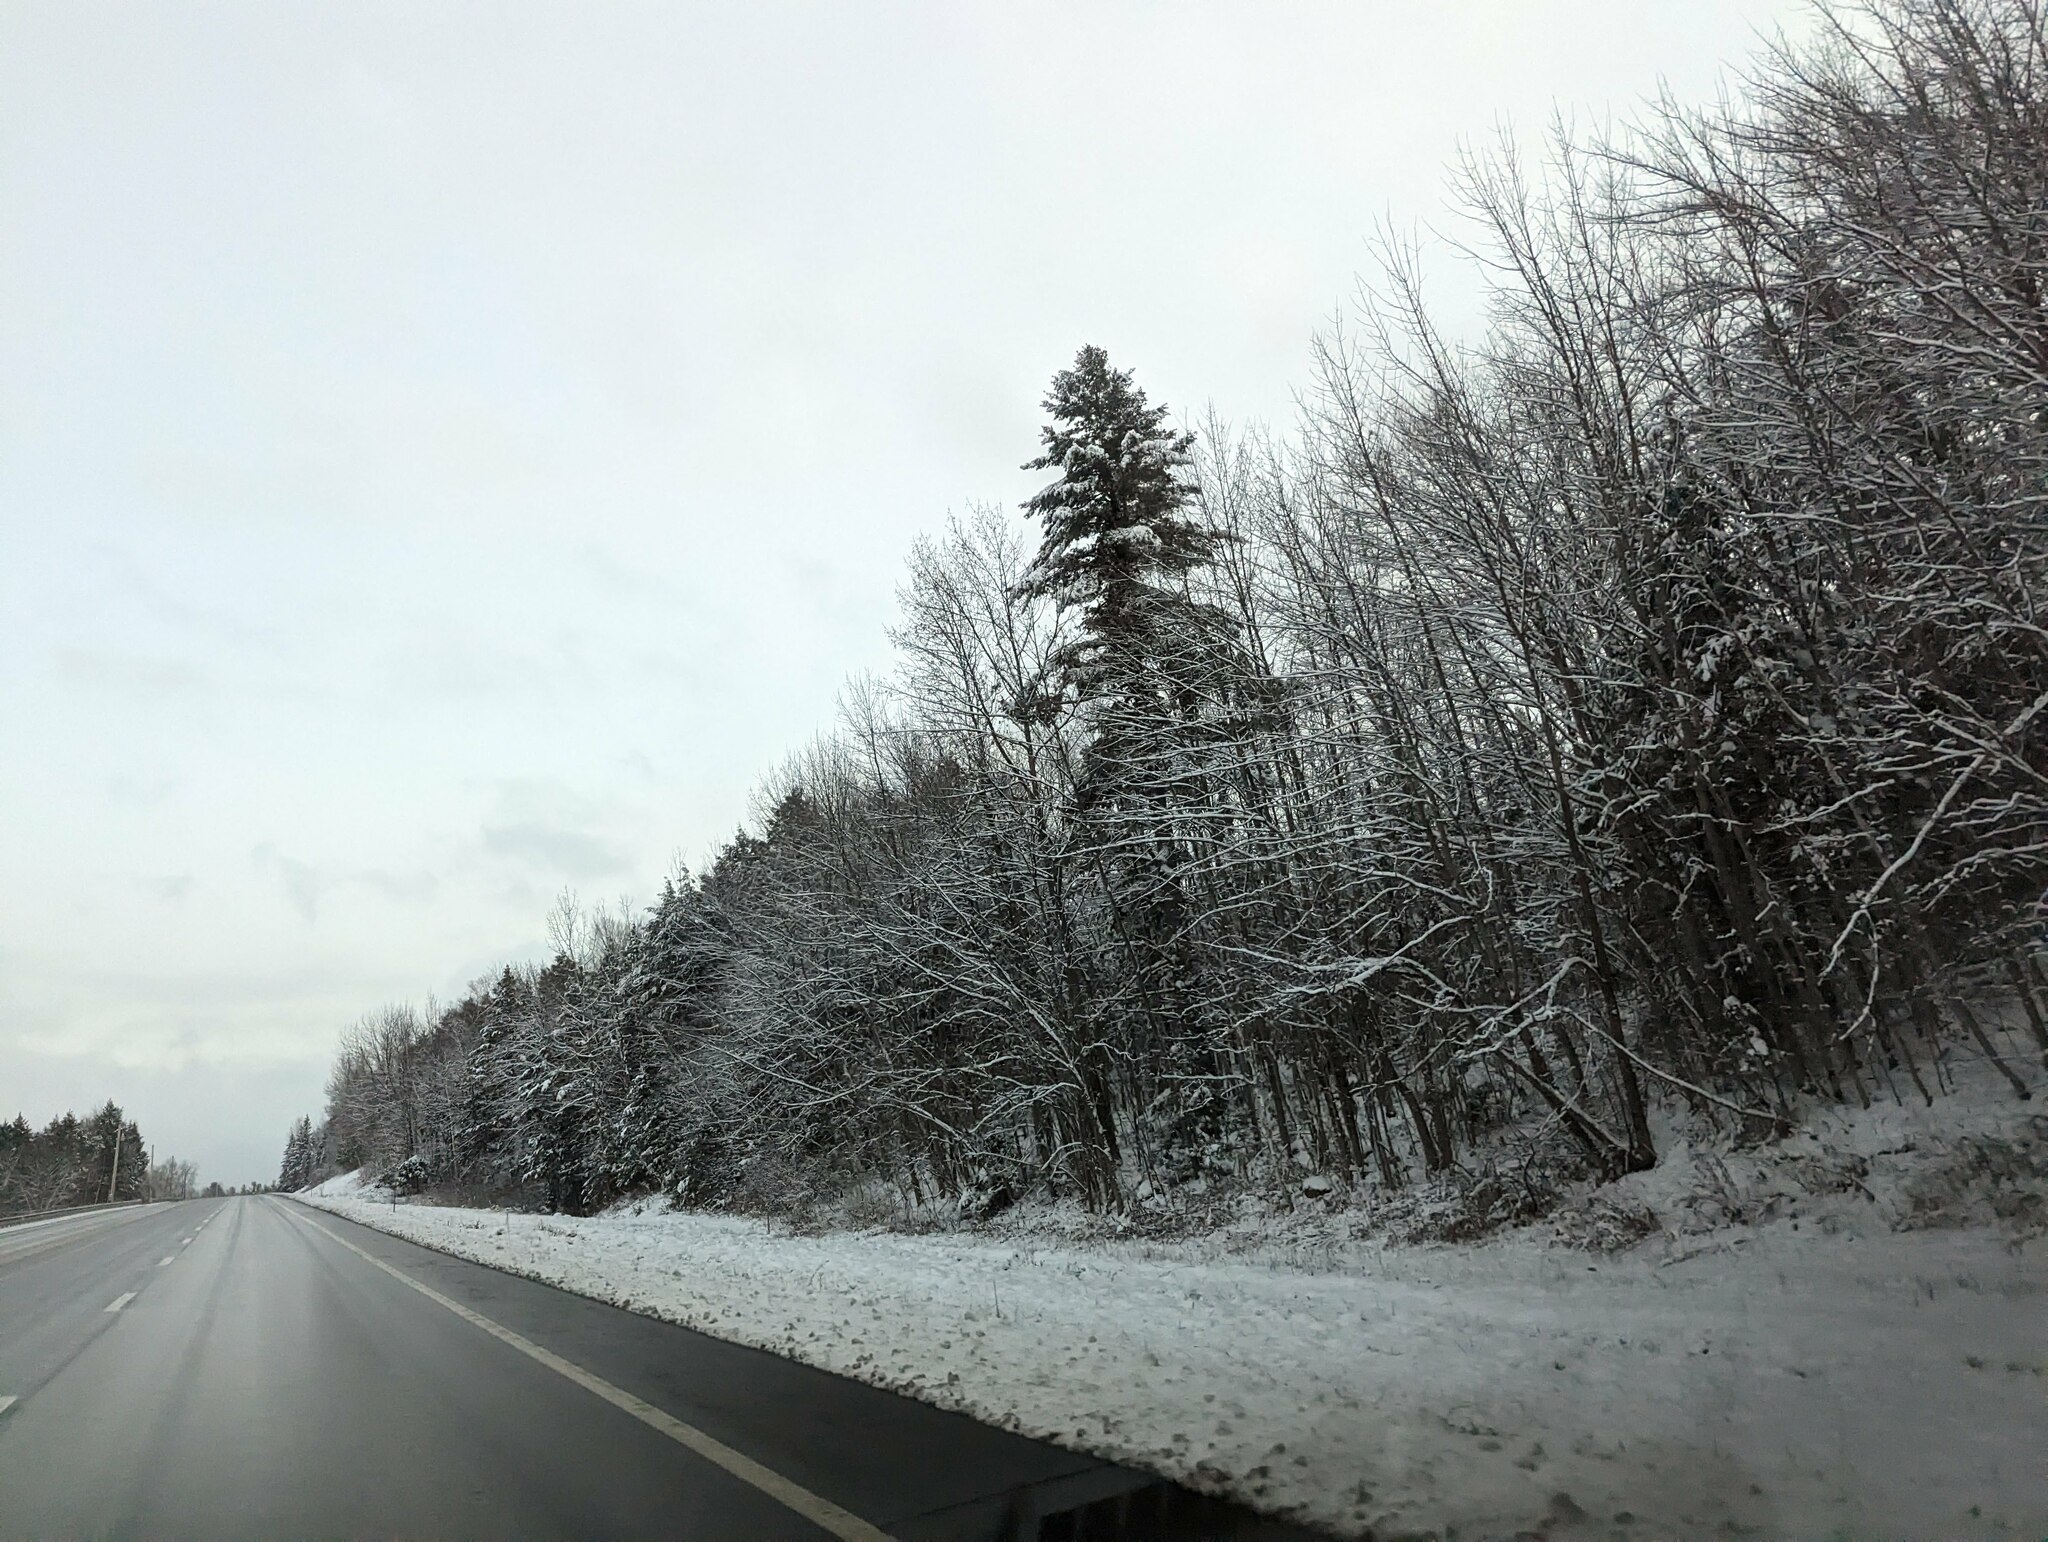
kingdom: Plantae
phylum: Tracheophyta
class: Pinopsida
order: Pinales
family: Pinaceae
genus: Pinus
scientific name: Pinus strobus
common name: Weymouth pine
